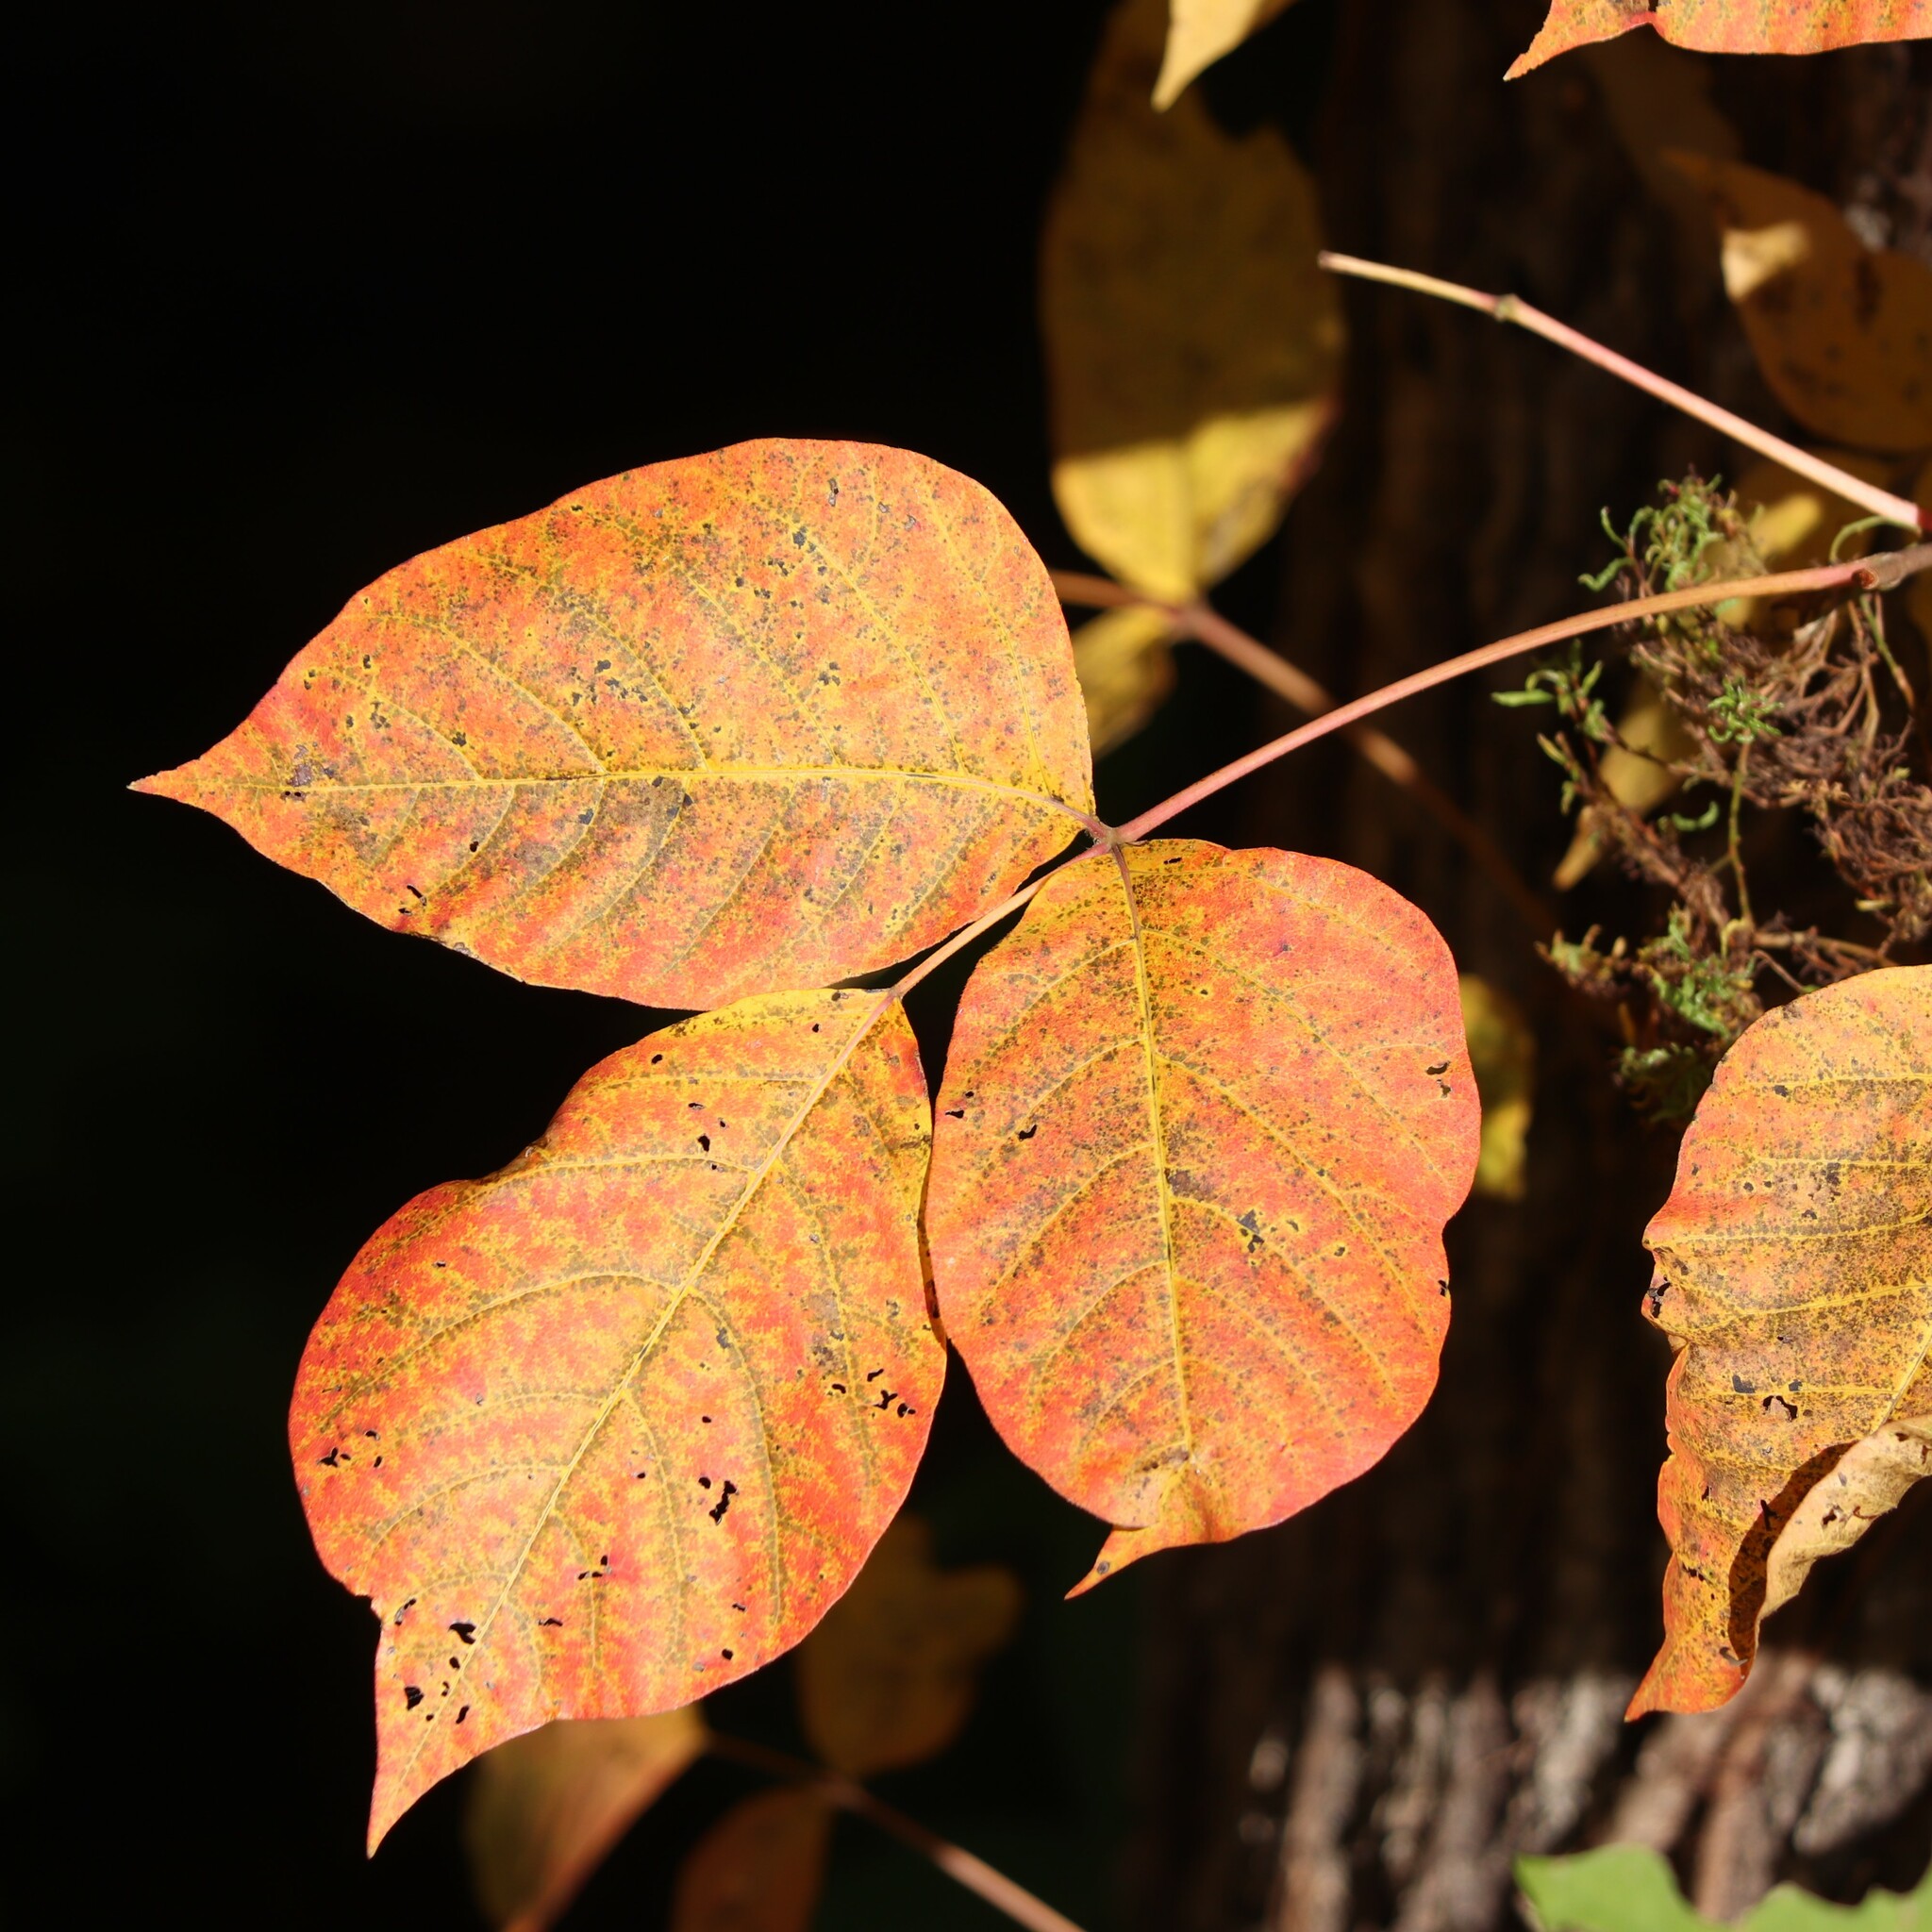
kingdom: Plantae
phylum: Tracheophyta
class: Magnoliopsida
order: Sapindales
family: Anacardiaceae
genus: Toxicodendron
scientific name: Toxicodendron radicans
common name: Poison ivy
